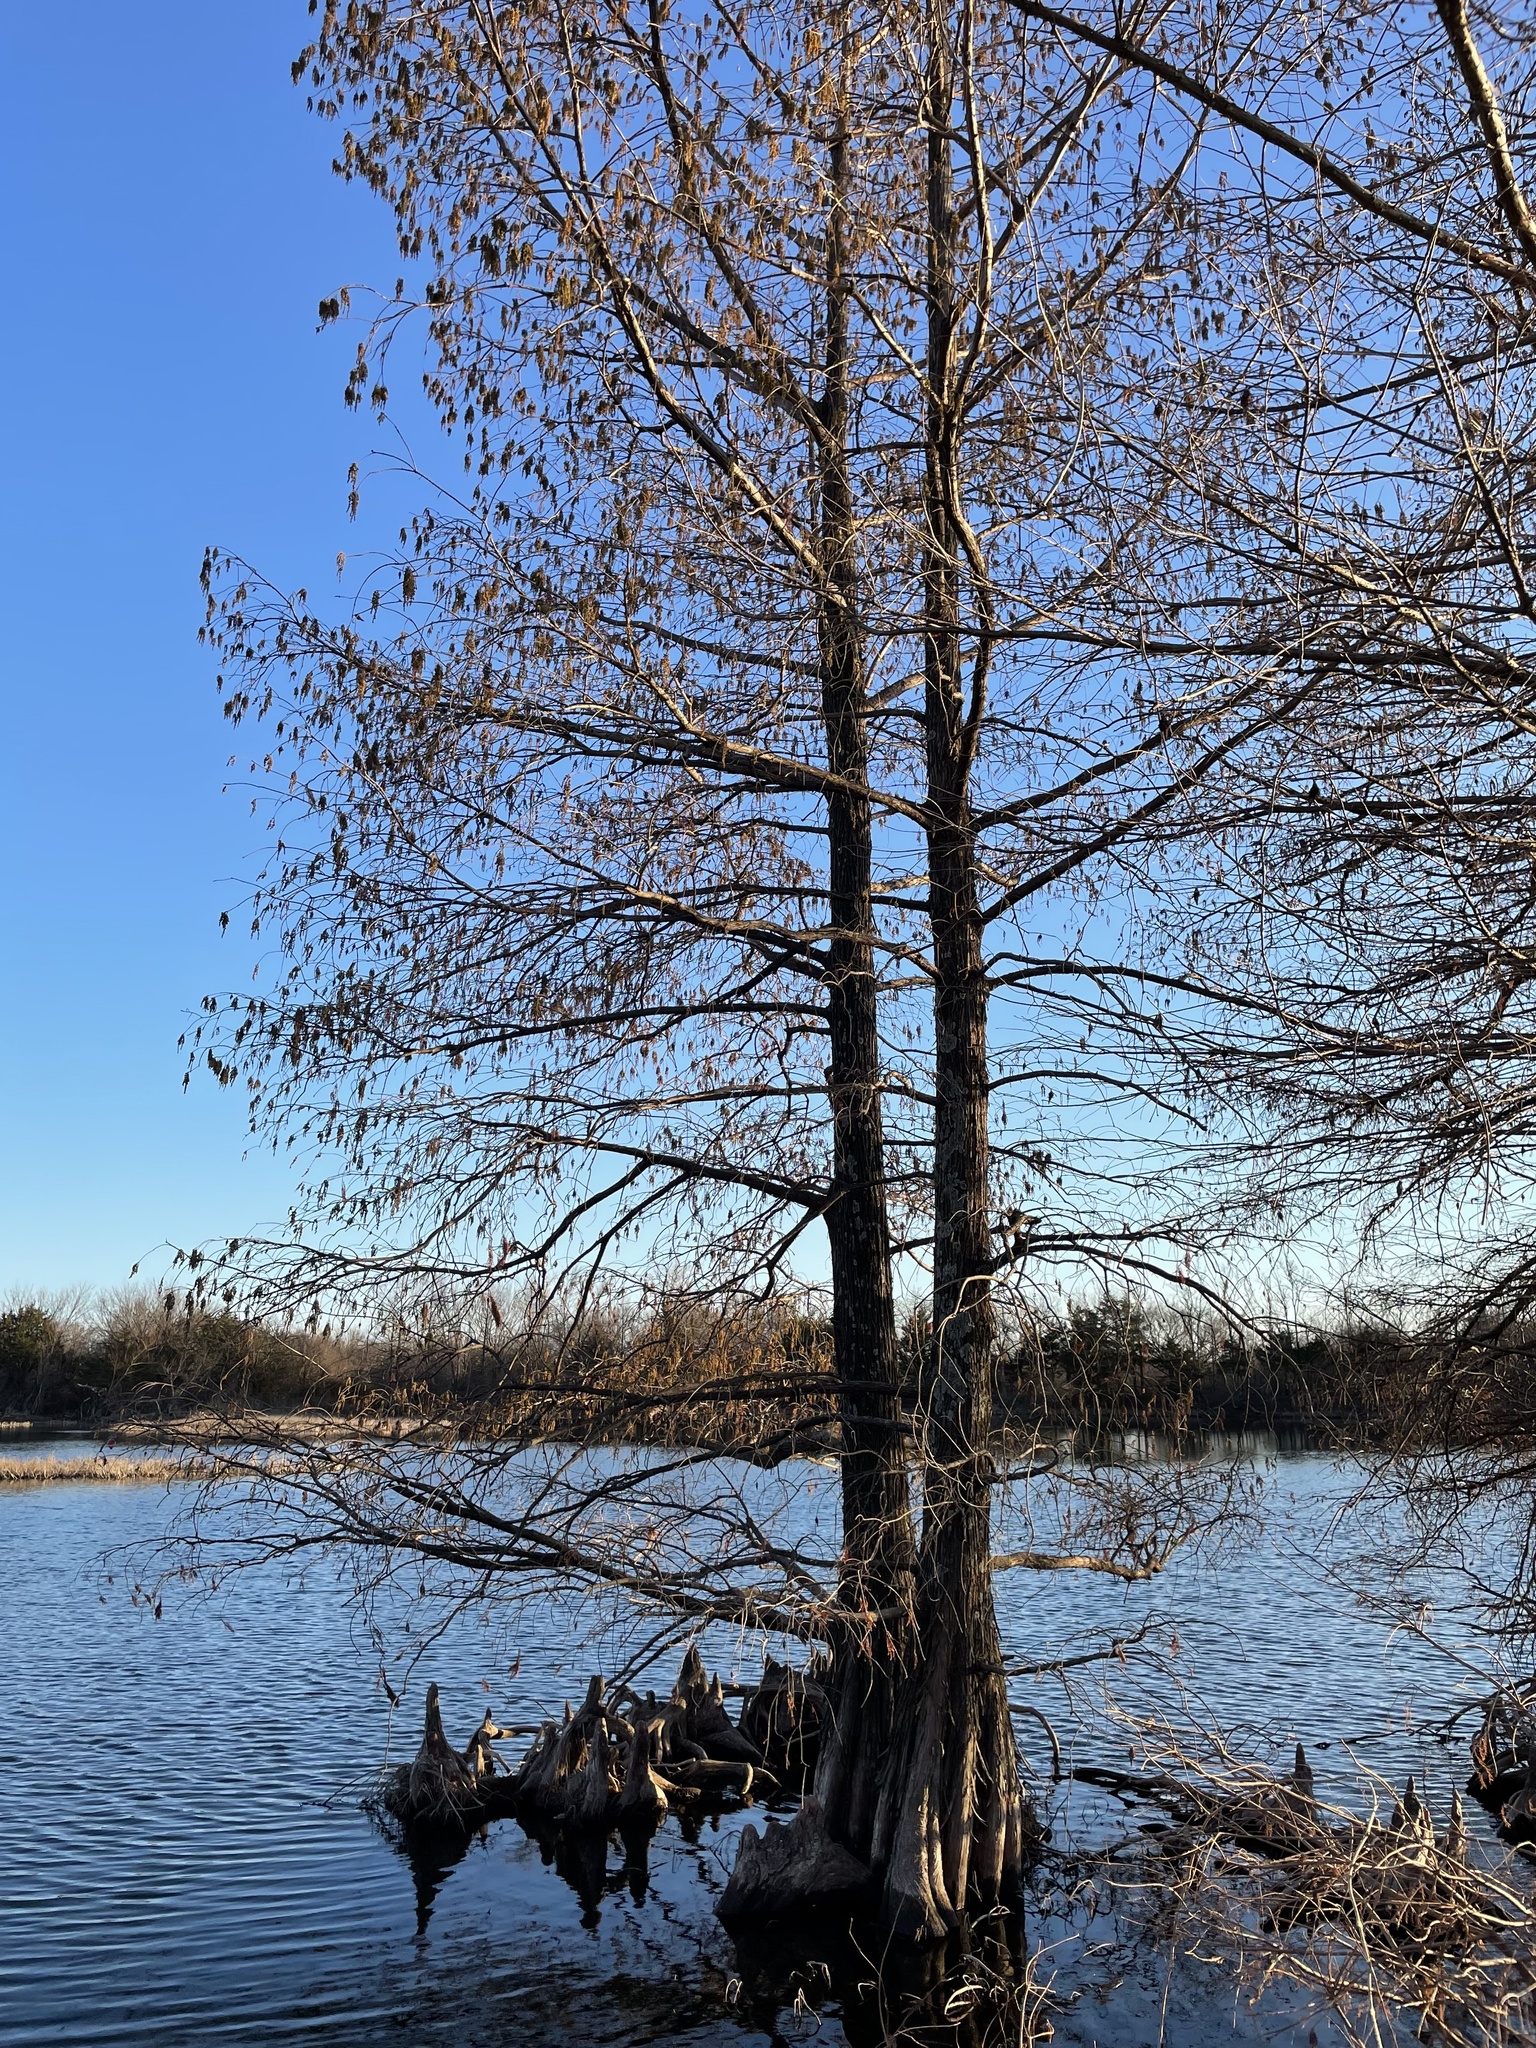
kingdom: Plantae
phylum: Tracheophyta
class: Pinopsida
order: Pinales
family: Cupressaceae
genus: Taxodium
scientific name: Taxodium distichum
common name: Bald cypress
